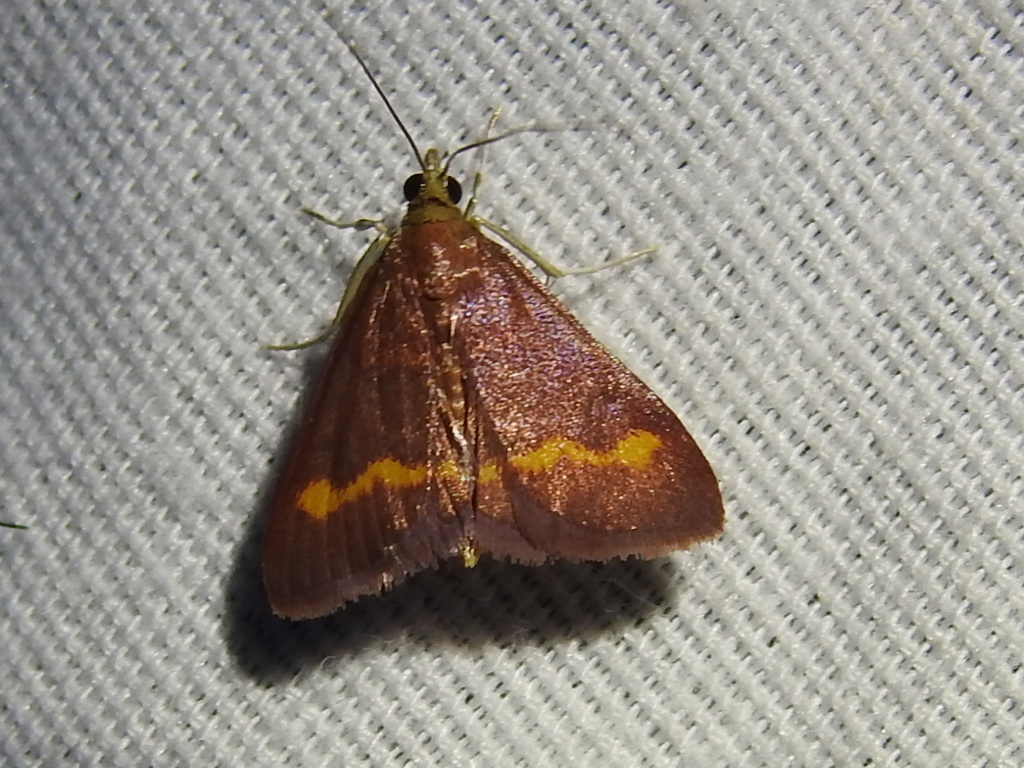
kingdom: Animalia
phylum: Arthropoda
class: Insecta
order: Lepidoptera
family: Crambidae
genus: Pyrausta
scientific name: Pyrausta pseuderosnealis
